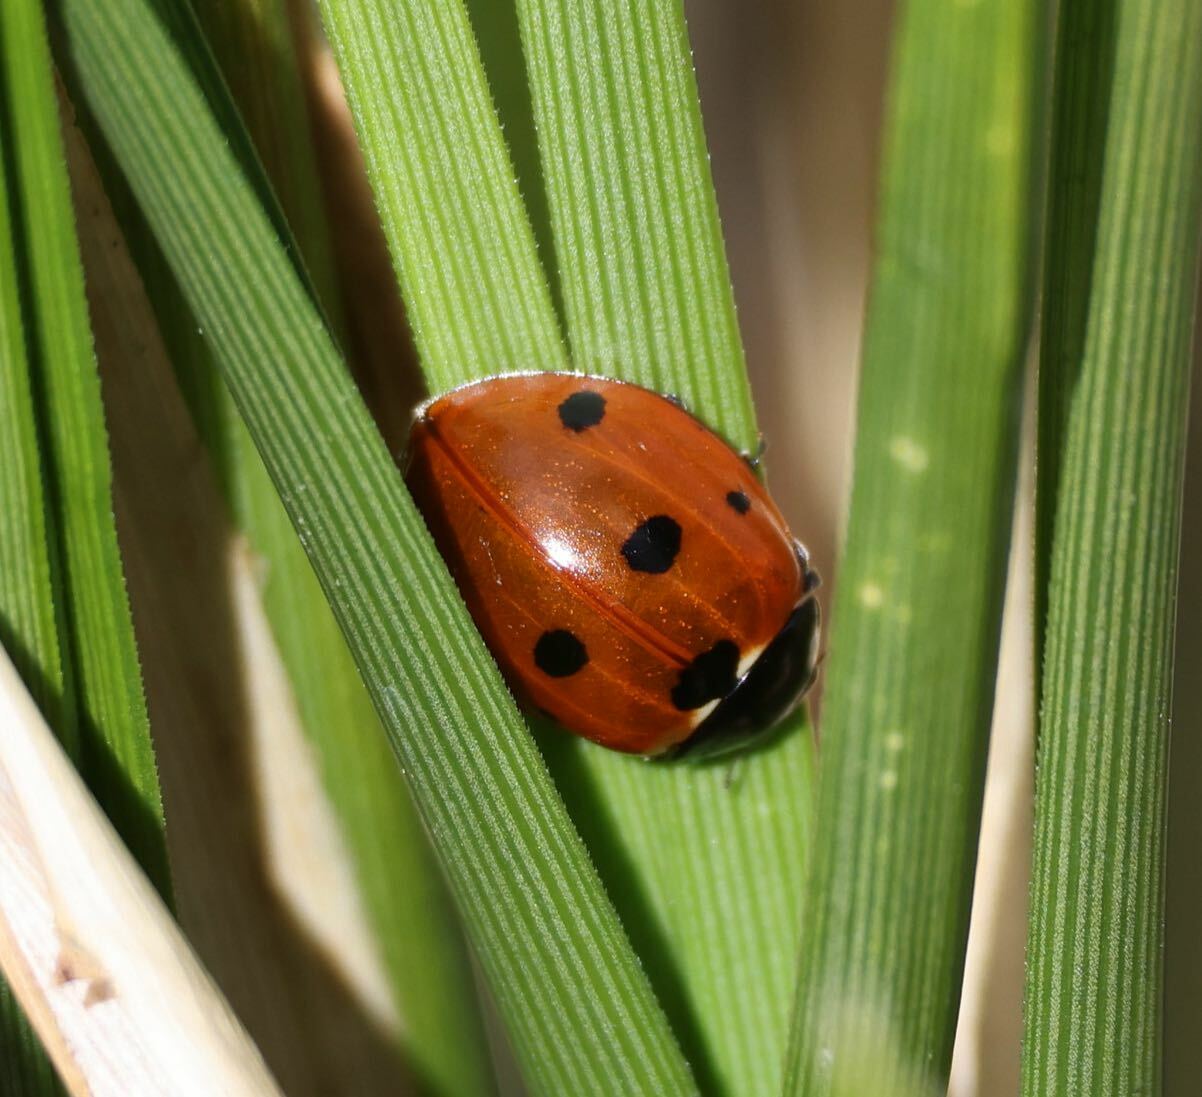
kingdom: Animalia
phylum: Arthropoda
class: Insecta
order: Coleoptera
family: Coccinellidae
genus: Coccinella
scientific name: Coccinella septempunctata
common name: Sevenspotted lady beetle
